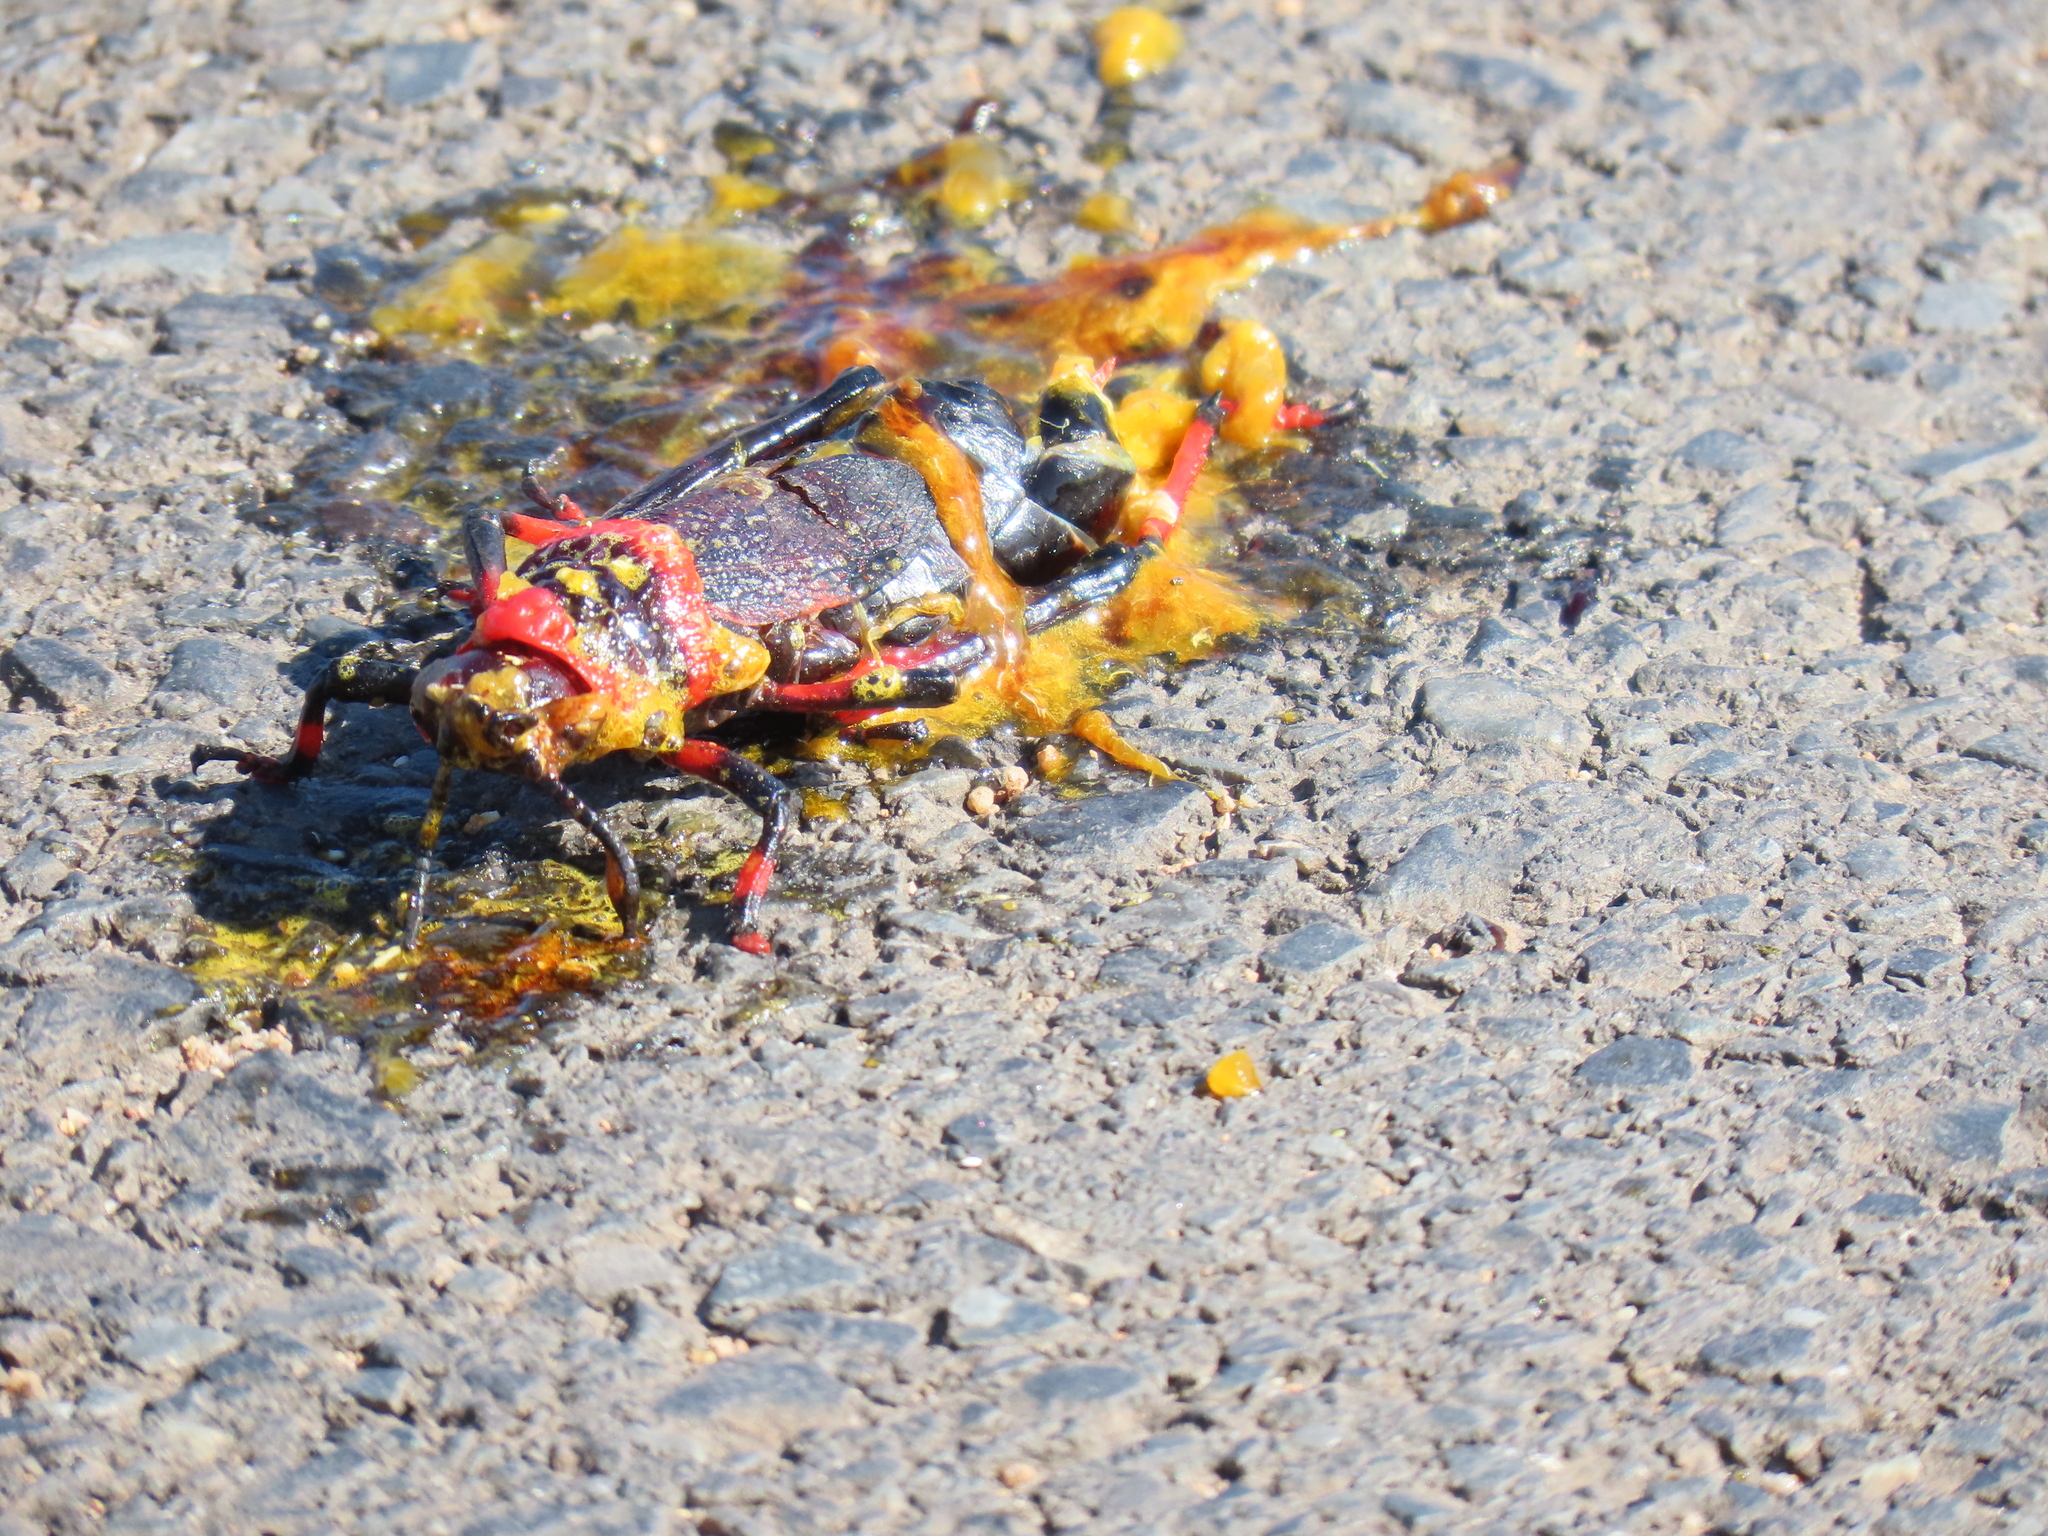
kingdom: Animalia
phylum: Arthropoda
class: Insecta
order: Orthoptera
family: Pyrgomorphidae
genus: Dictyophorus
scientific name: Dictyophorus spumans
